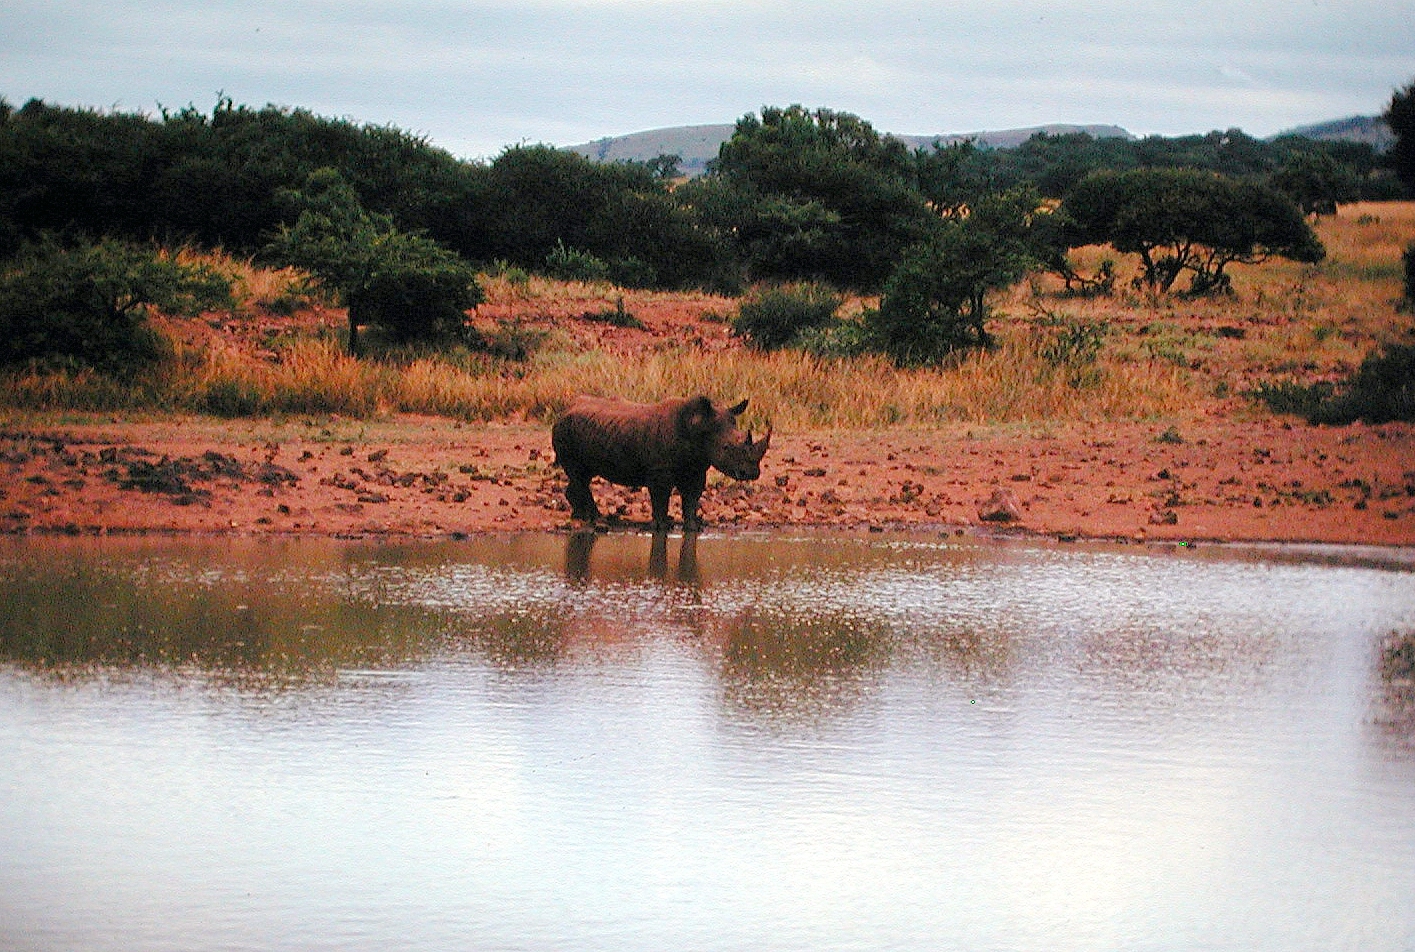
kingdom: Animalia
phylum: Chordata
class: Mammalia
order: Perissodactyla
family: Rhinocerotidae
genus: Ceratotherium
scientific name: Ceratotherium simum
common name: White rhinoceros
